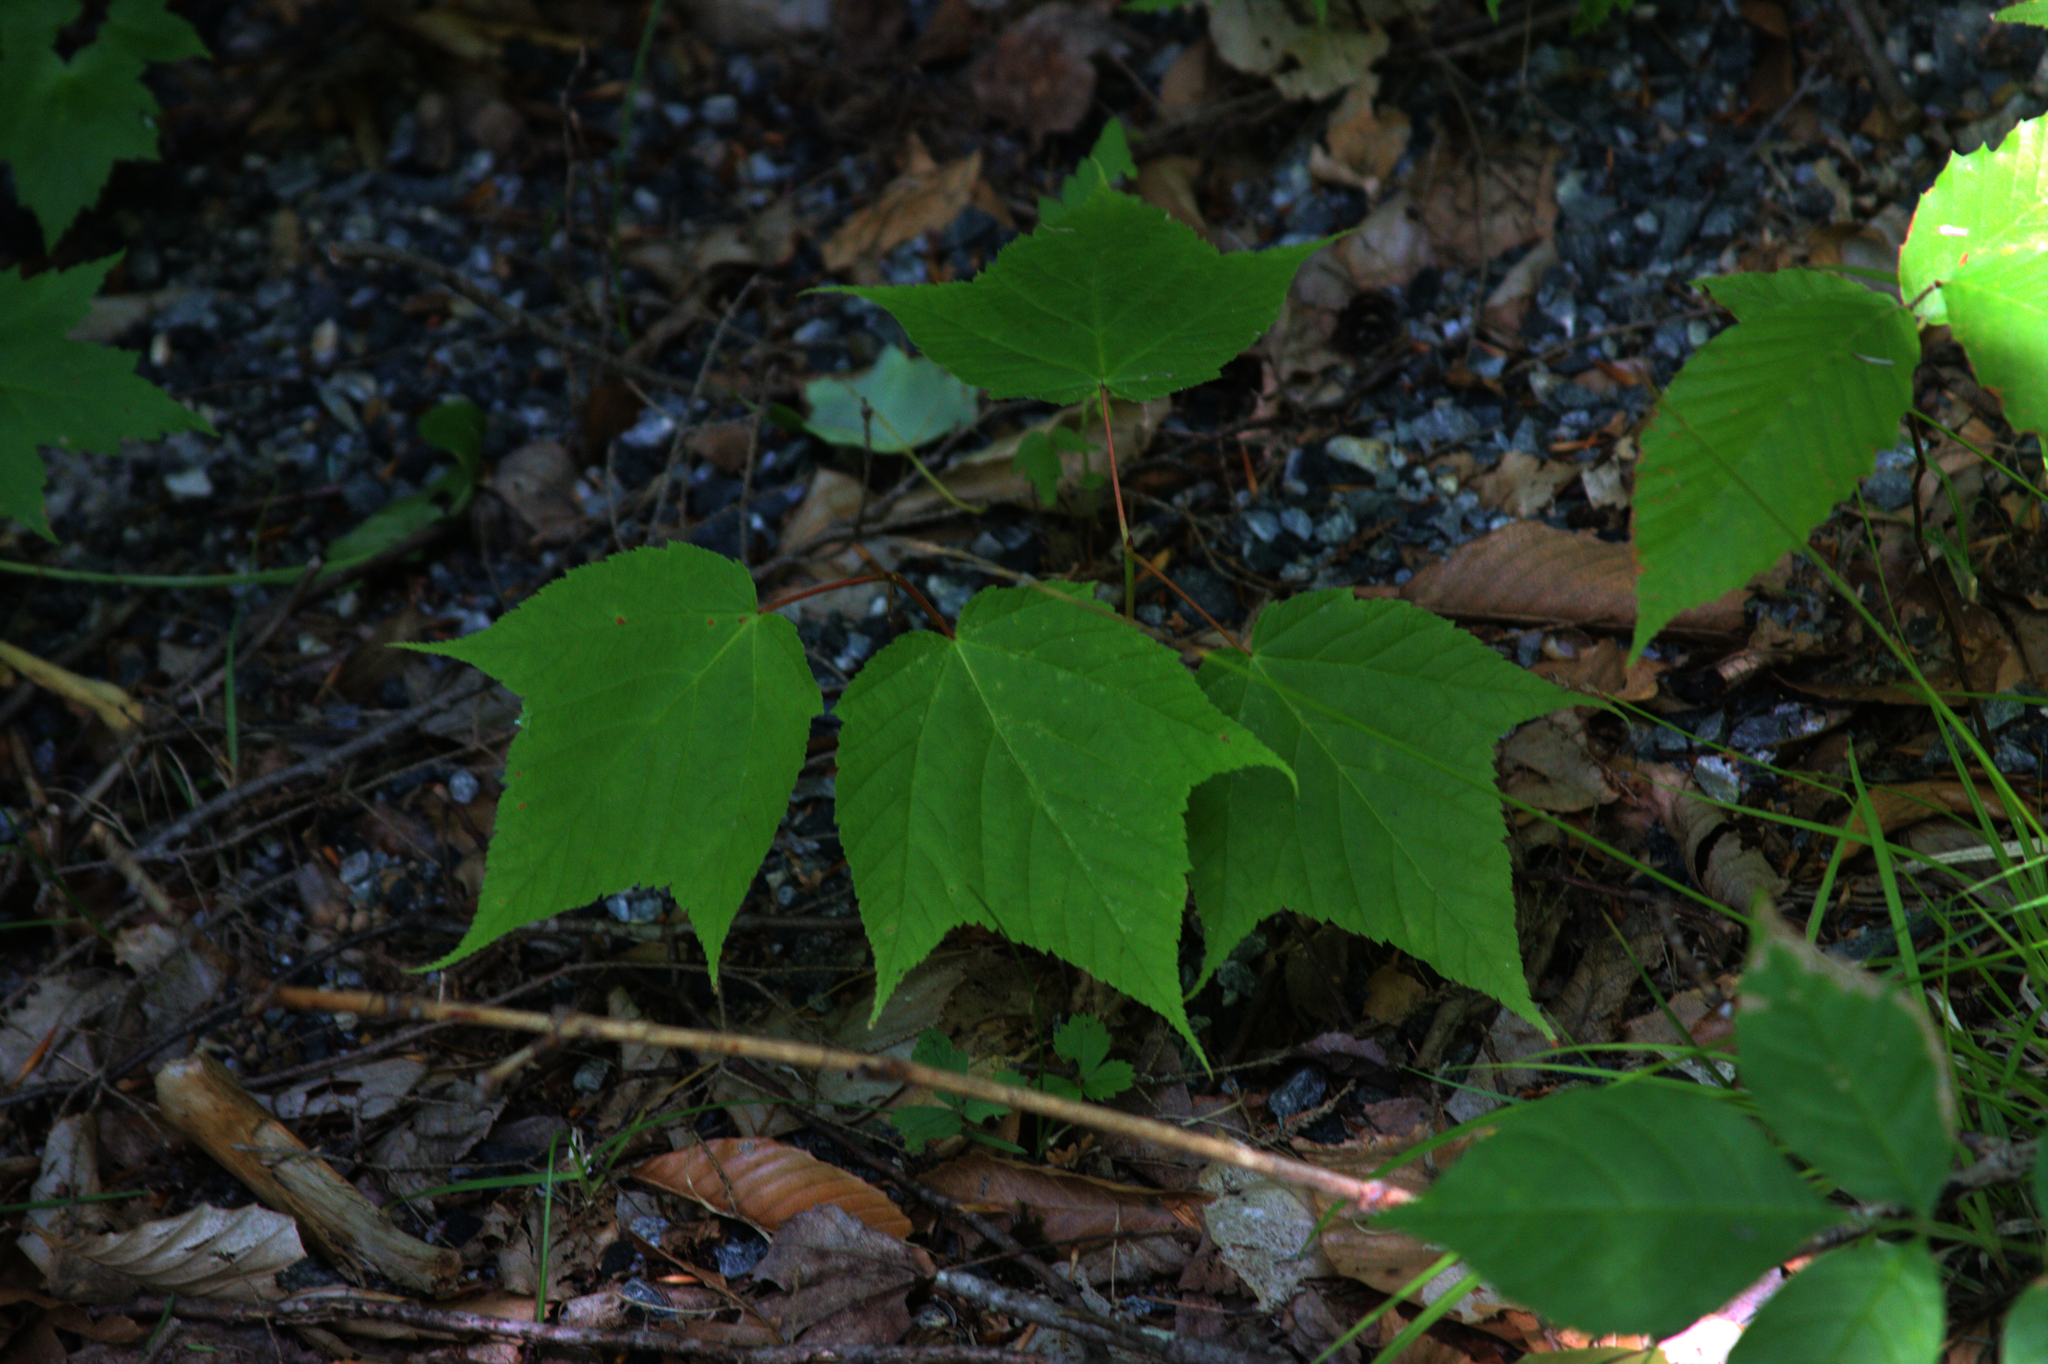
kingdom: Plantae
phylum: Tracheophyta
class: Magnoliopsida
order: Sapindales
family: Sapindaceae
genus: Acer
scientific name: Acer pensylvanicum
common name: Moosewood
